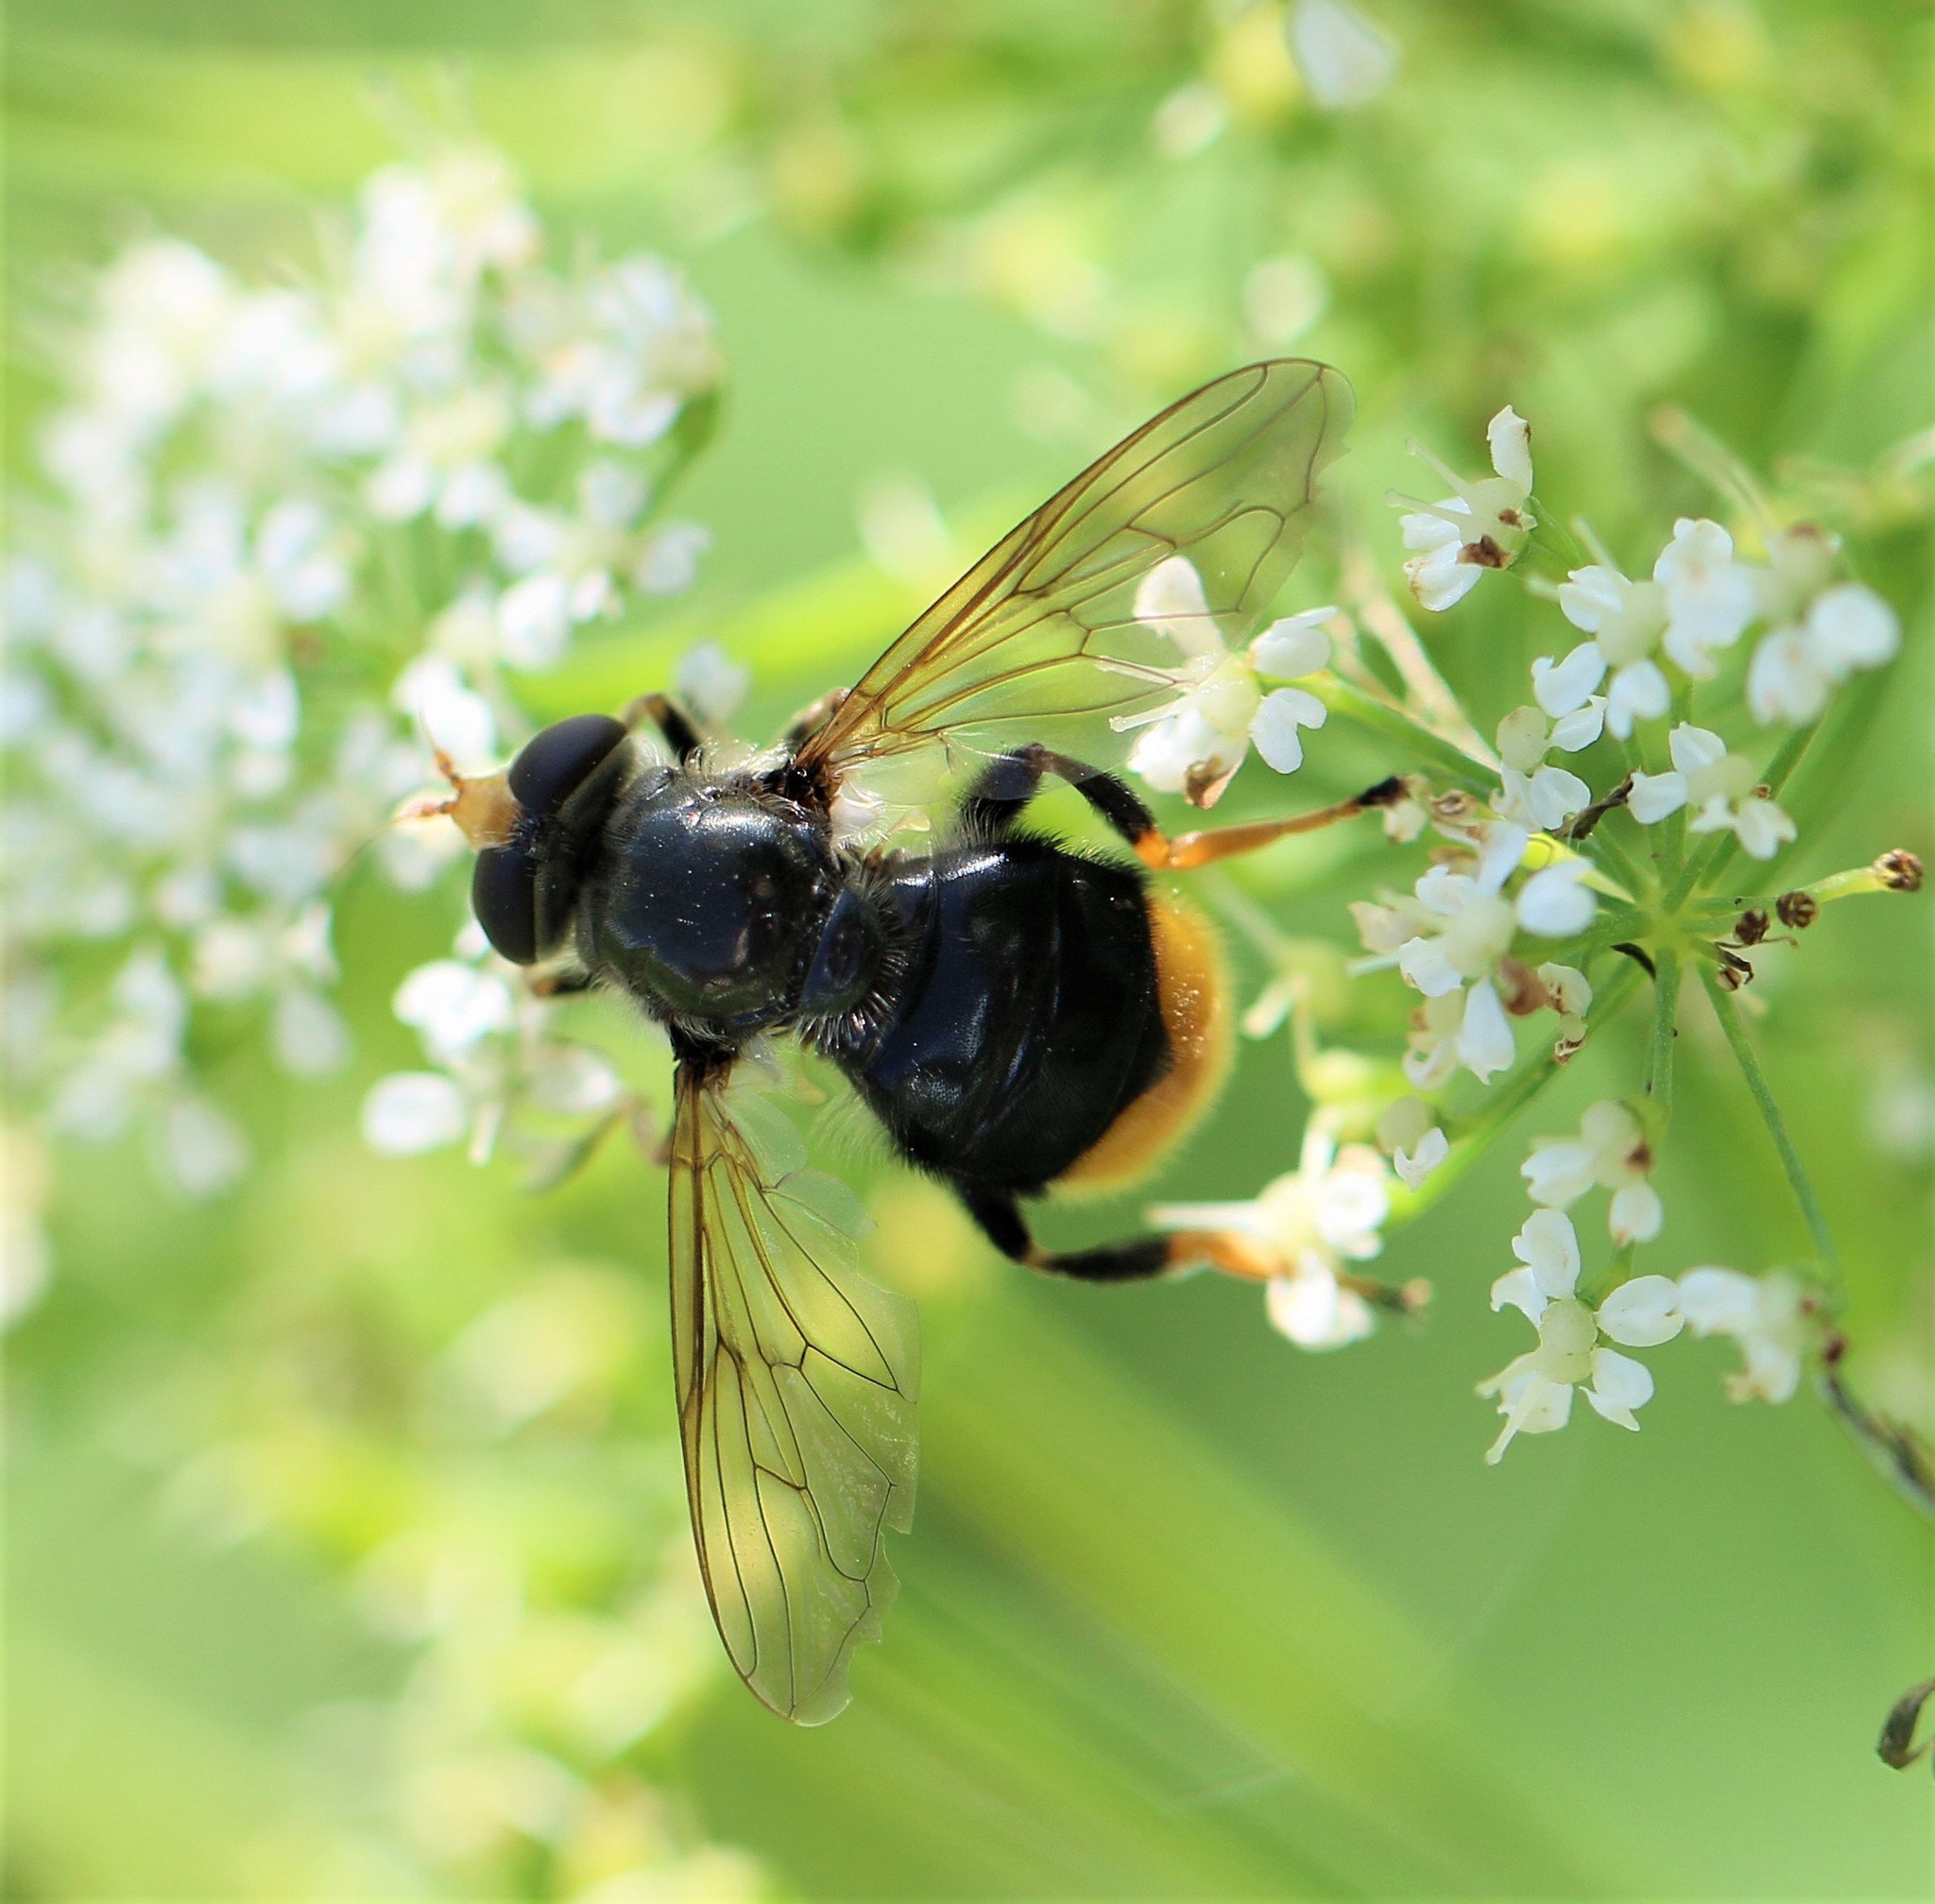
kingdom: Animalia
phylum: Arthropoda
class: Insecta
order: Diptera
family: Syrphidae
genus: Blera
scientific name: Blera analis
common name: Orange-tailed wood fly
